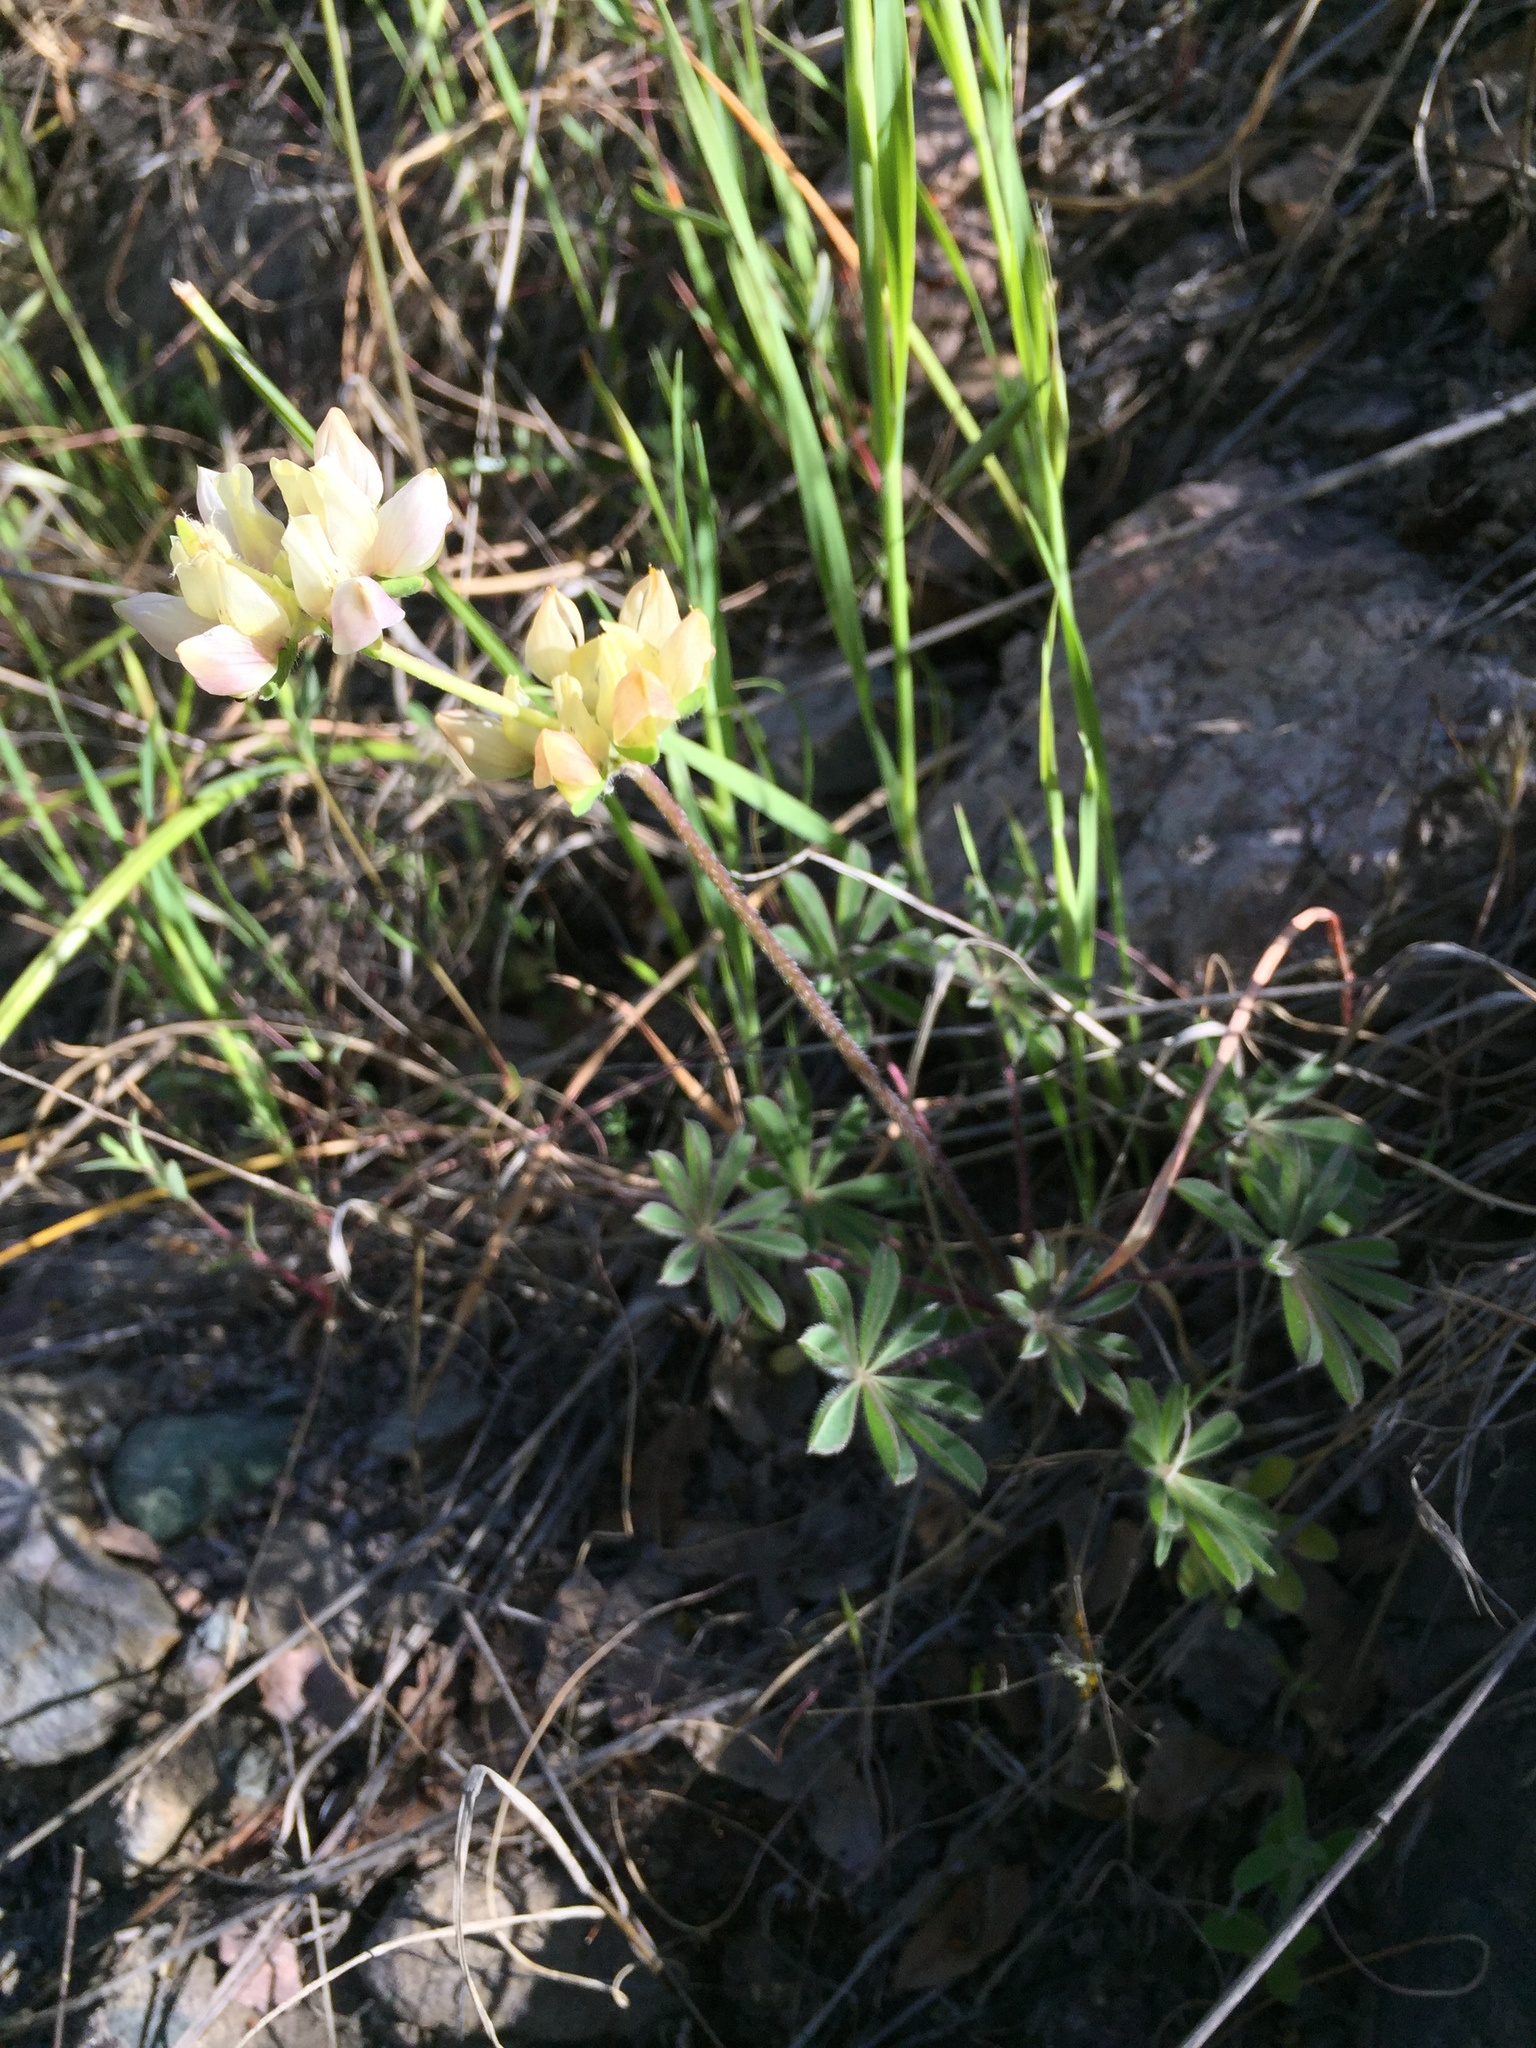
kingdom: Plantae
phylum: Tracheophyta
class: Magnoliopsida
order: Fabales
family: Fabaceae
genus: Lupinus
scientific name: Lupinus microcarpus
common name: Chick lupine
